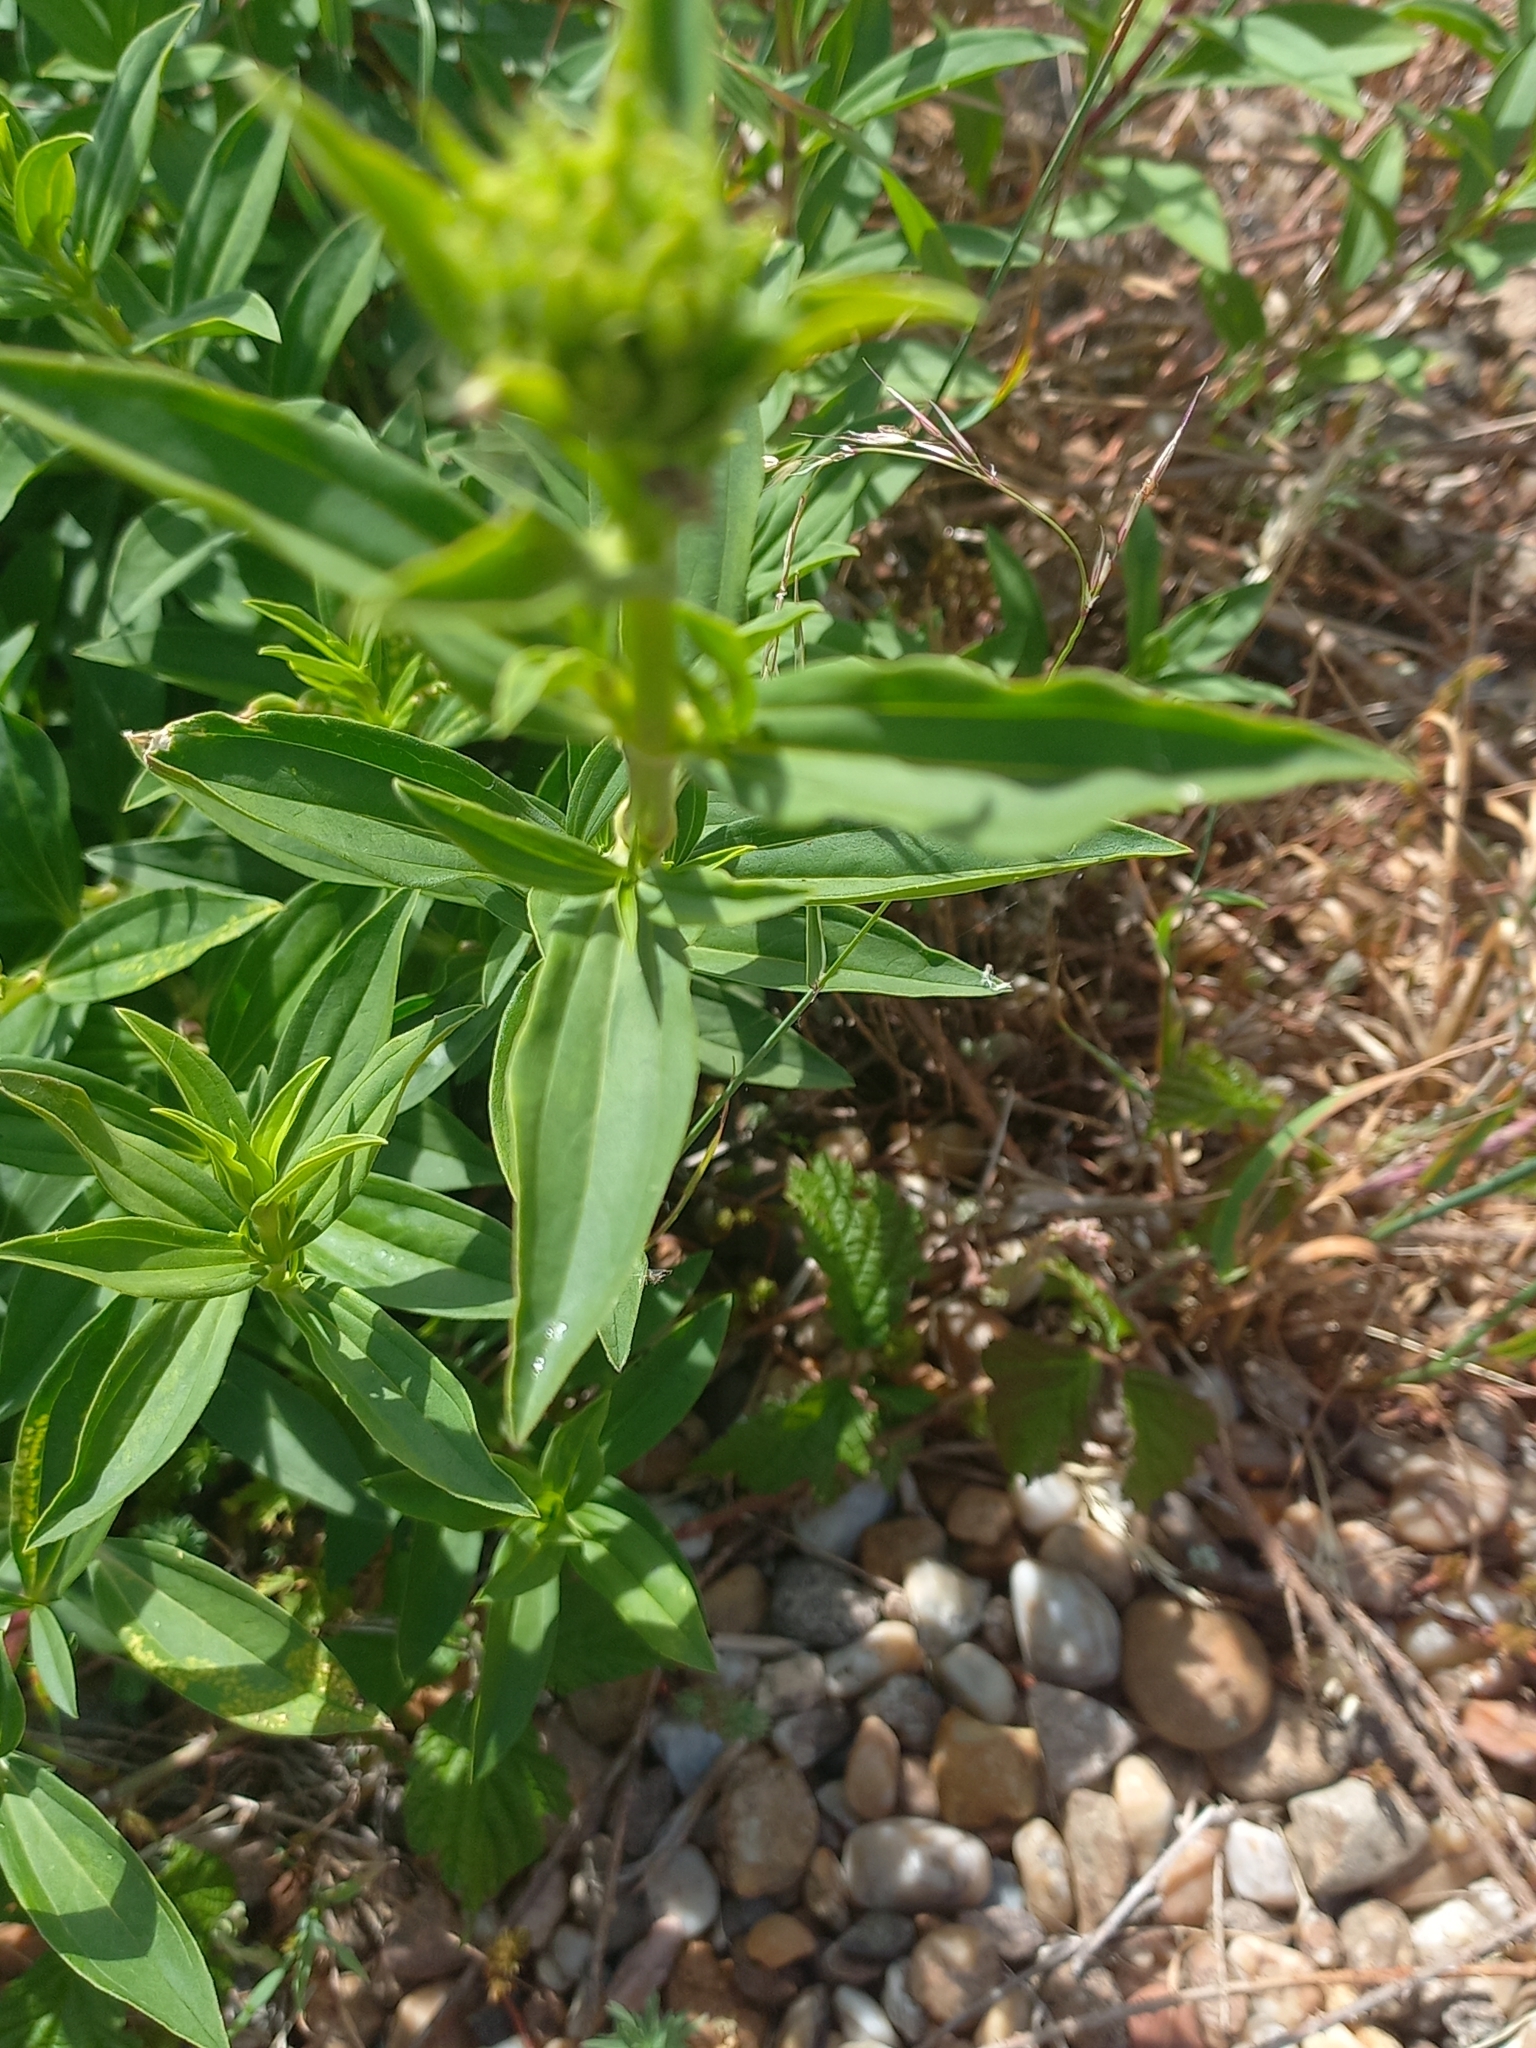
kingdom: Plantae
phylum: Tracheophyta
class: Magnoliopsida
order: Caryophyllales
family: Caryophyllaceae
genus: Saponaria
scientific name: Saponaria officinalis
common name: Soapwort
